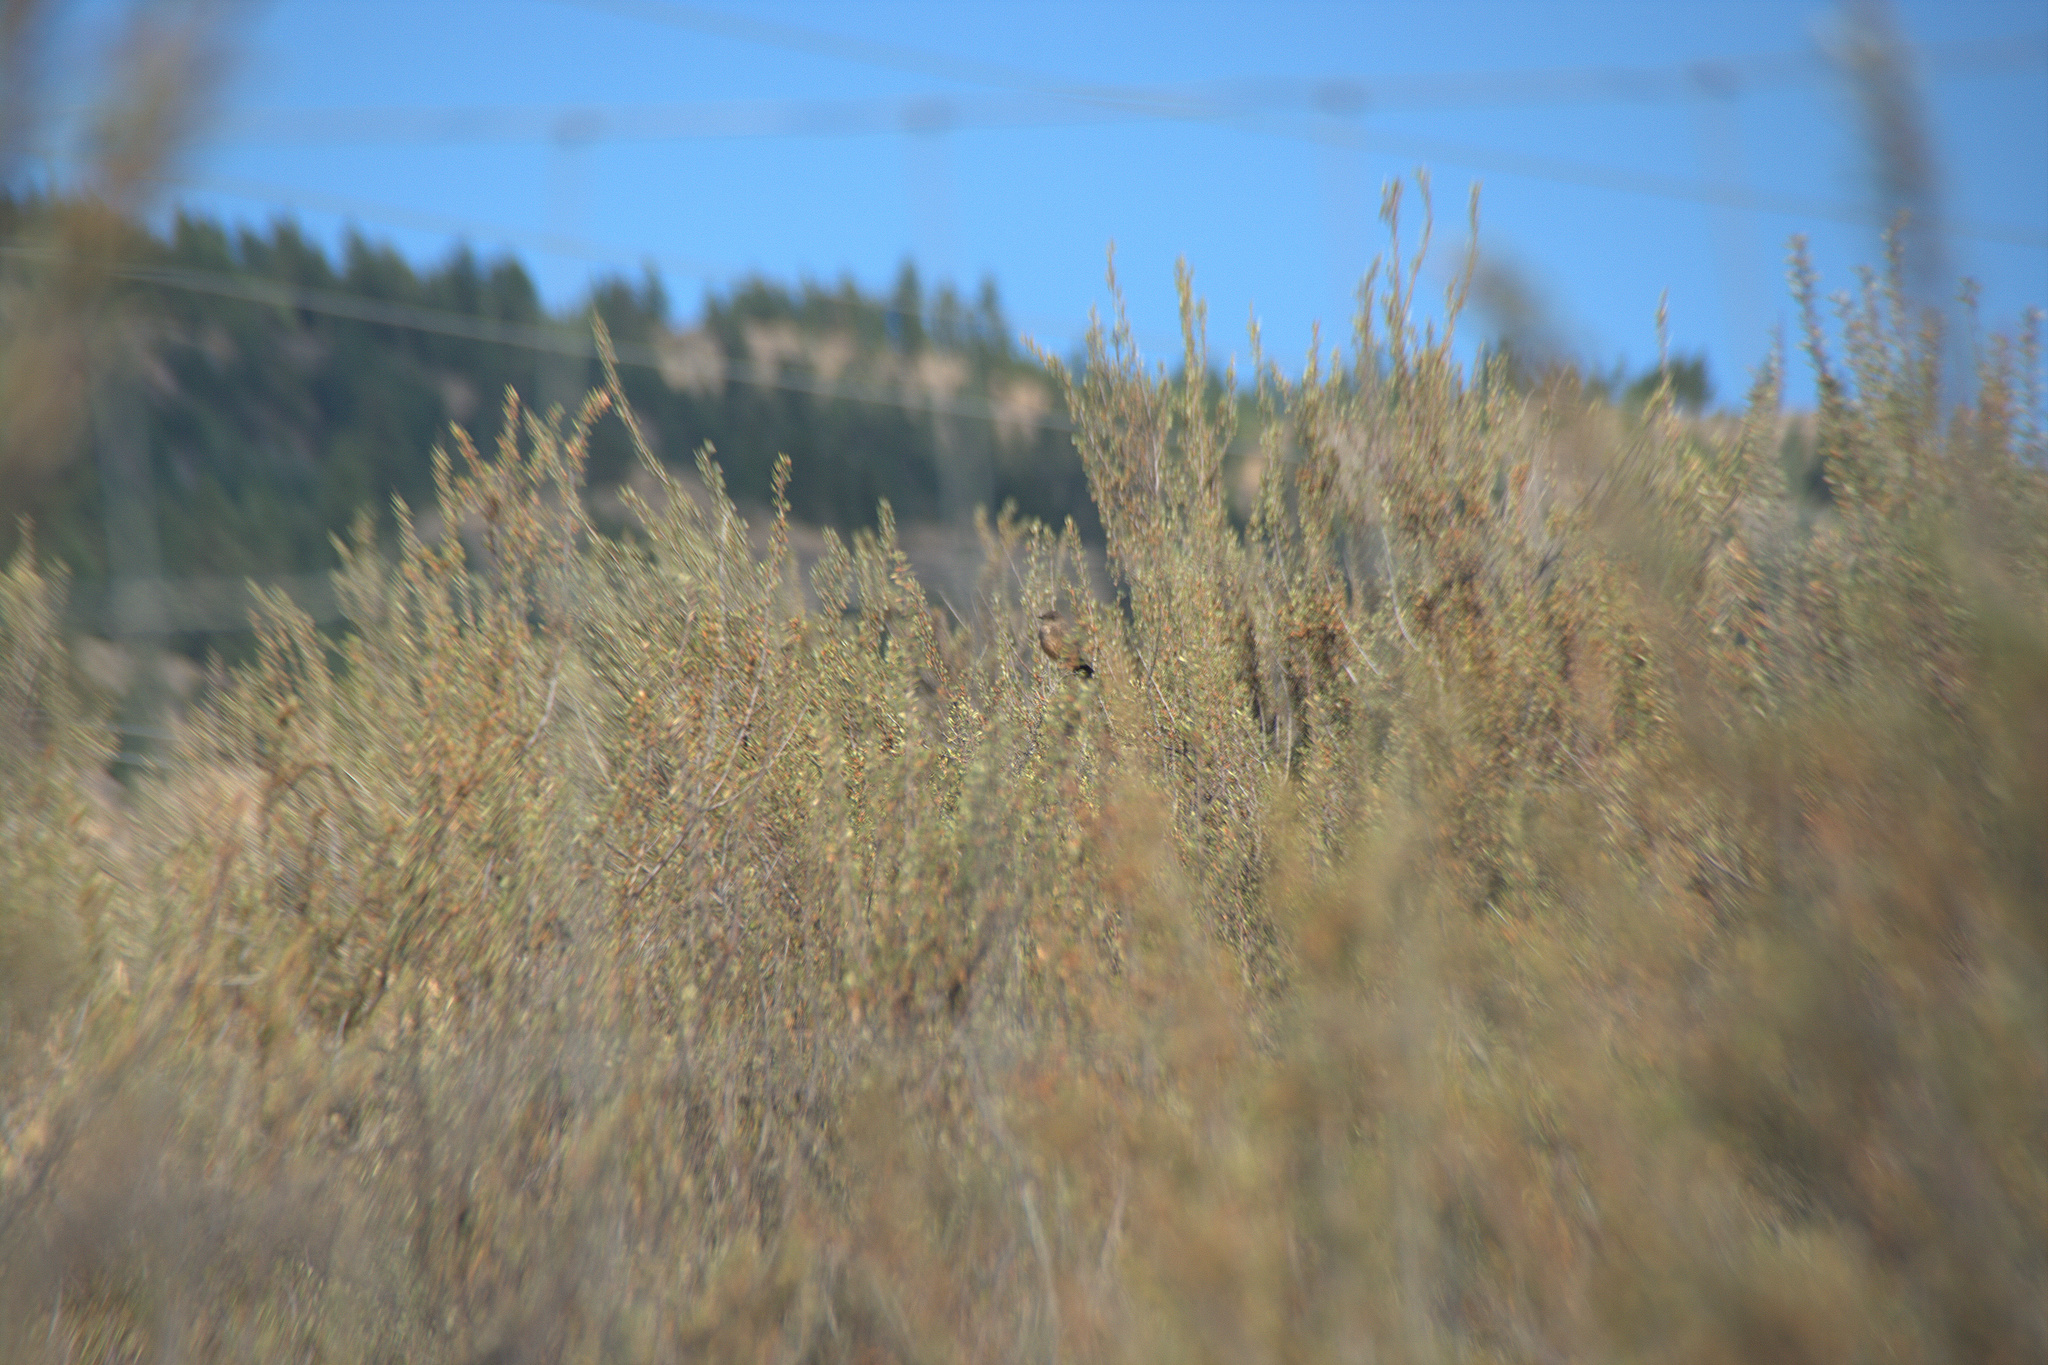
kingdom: Animalia
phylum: Chordata
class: Aves
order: Passeriformes
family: Tyrannidae
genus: Sayornis
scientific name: Sayornis saya
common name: Say's phoebe
